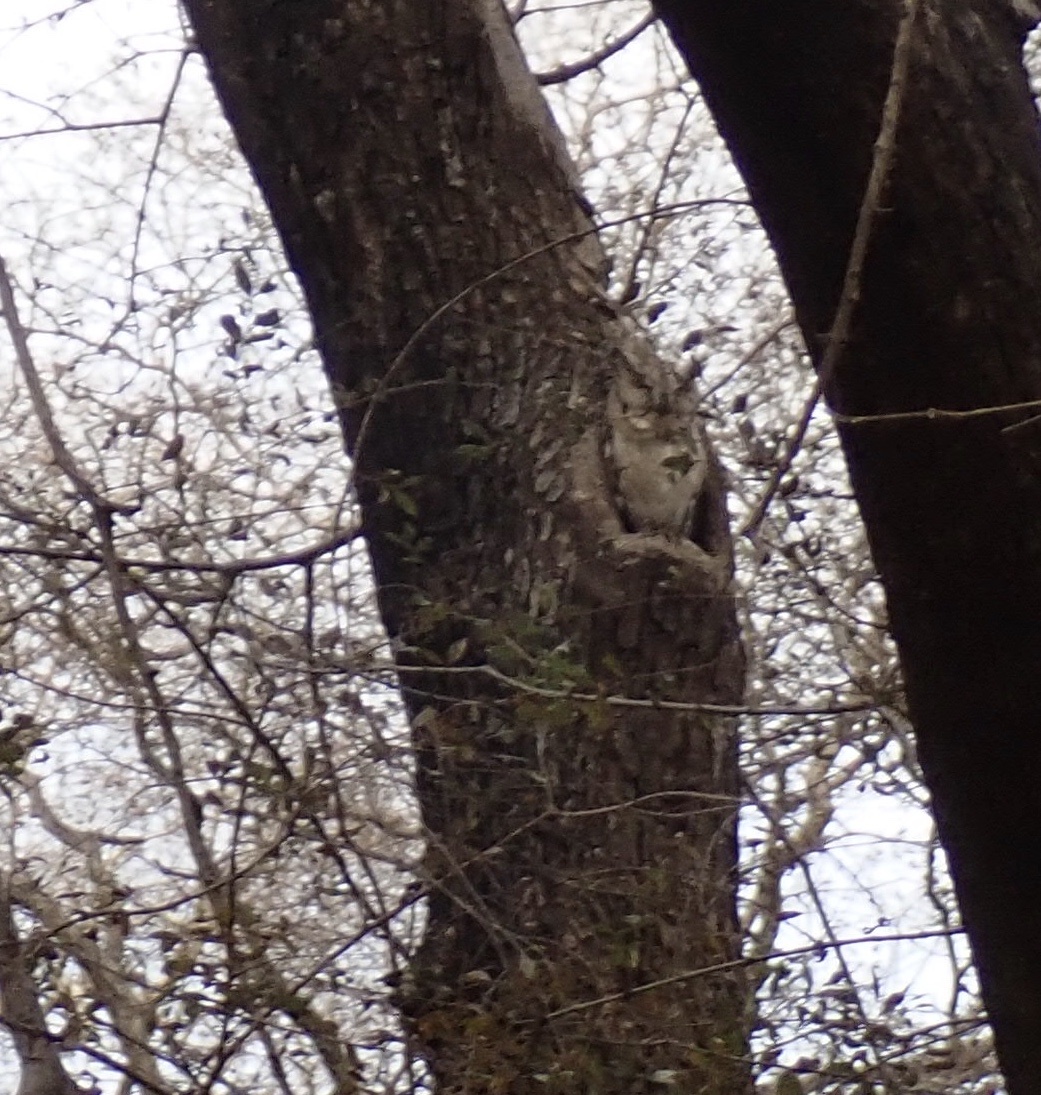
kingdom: Animalia
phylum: Chordata
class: Aves
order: Strigiformes
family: Strigidae
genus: Otus
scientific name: Otus bakkamoena
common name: Indian scops owl
